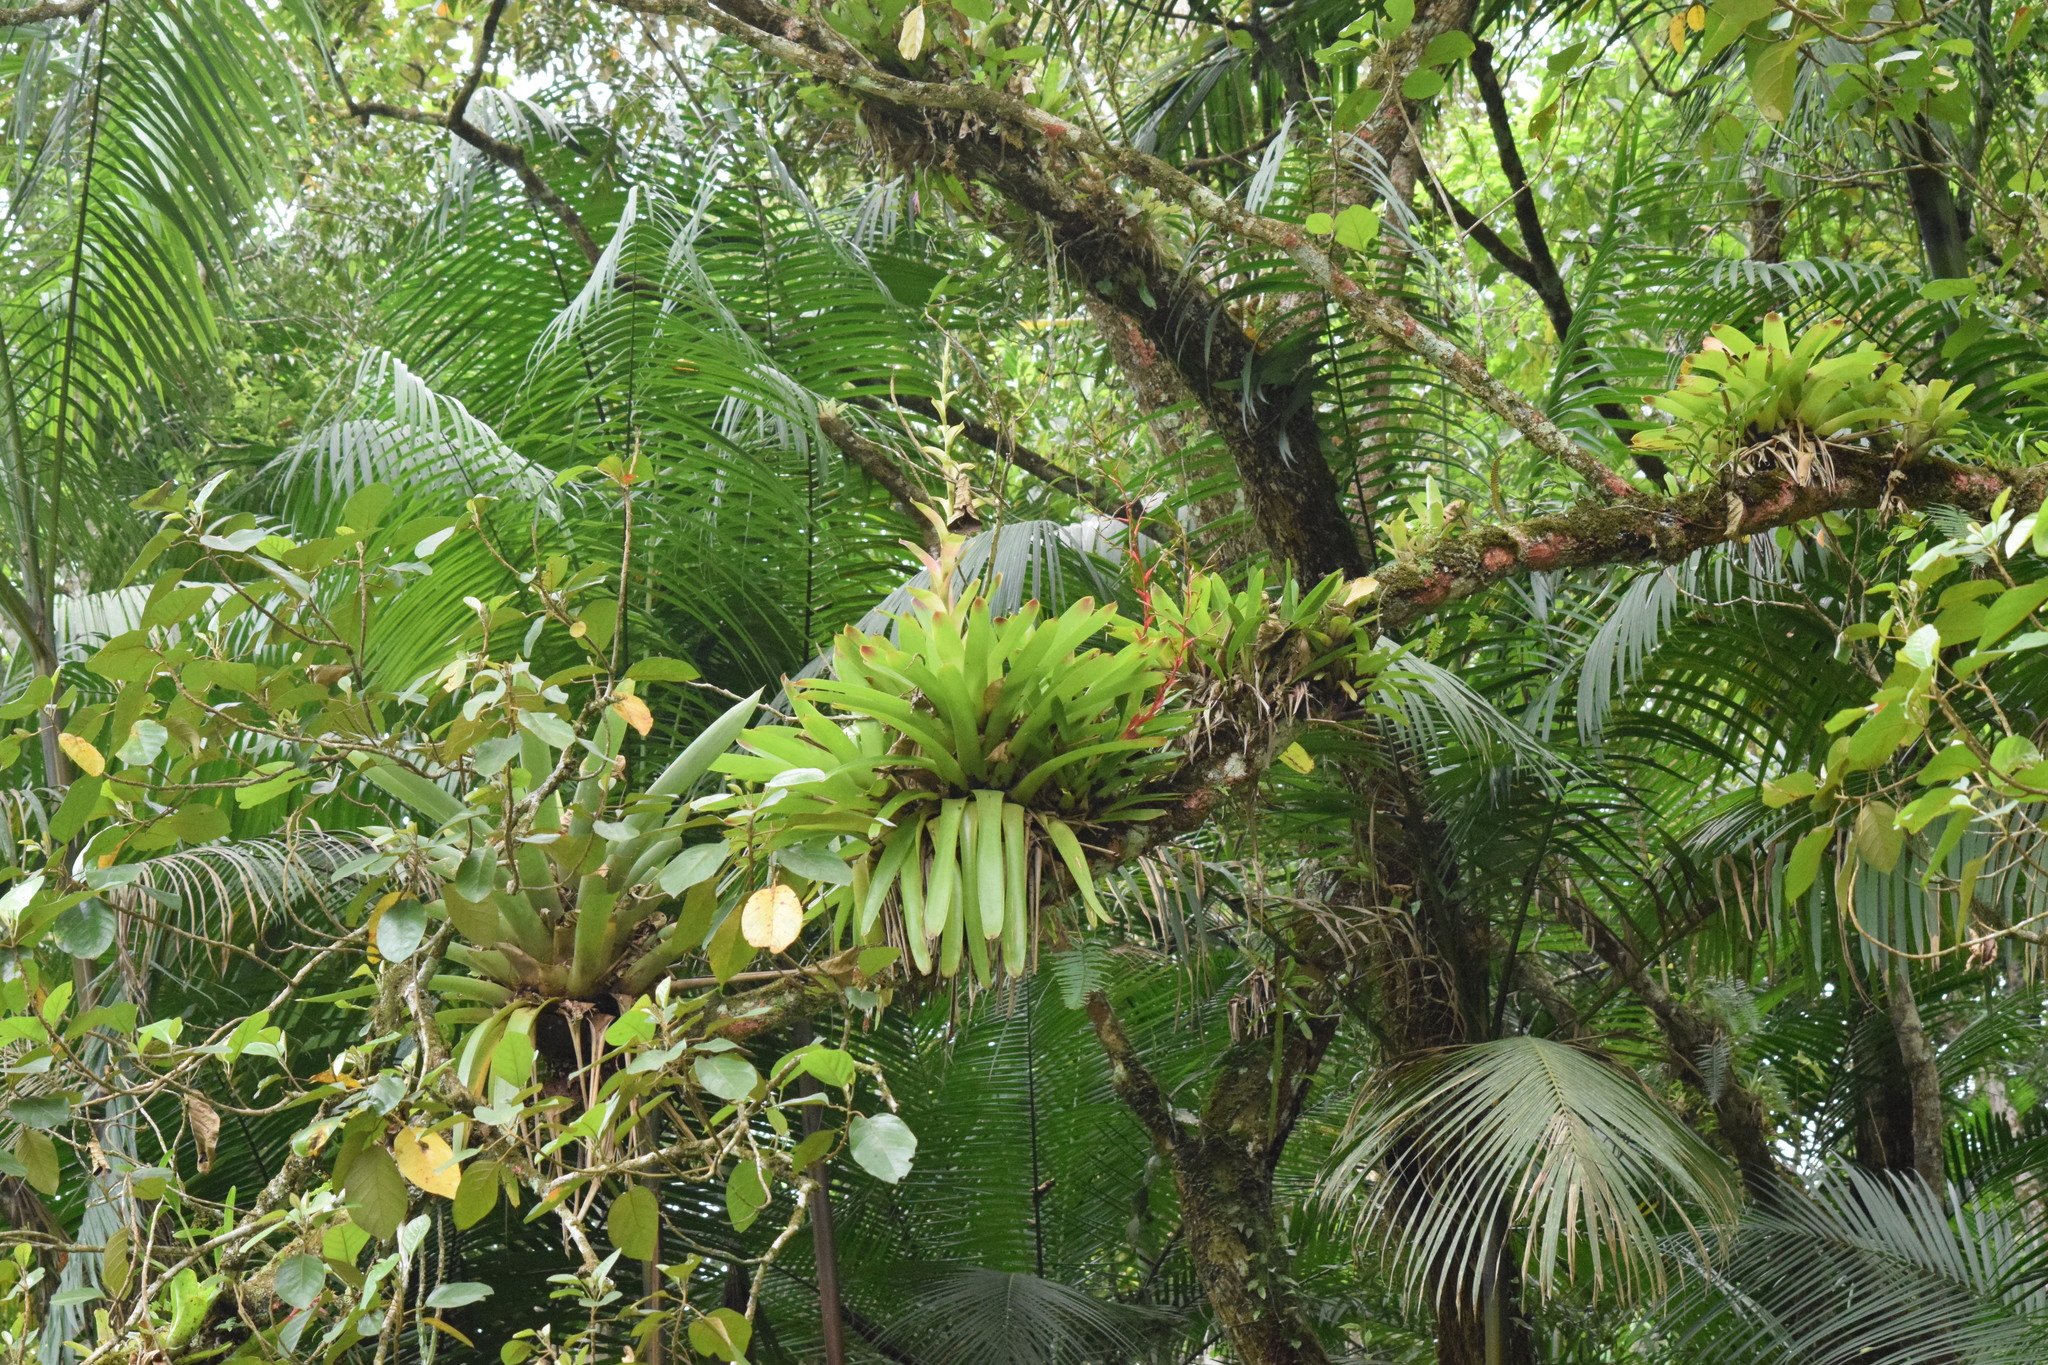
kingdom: Plantae
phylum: Tracheophyta
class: Liliopsida
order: Poales
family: Bromeliaceae
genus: Vriesea
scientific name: Vriesea philippocoburgi
